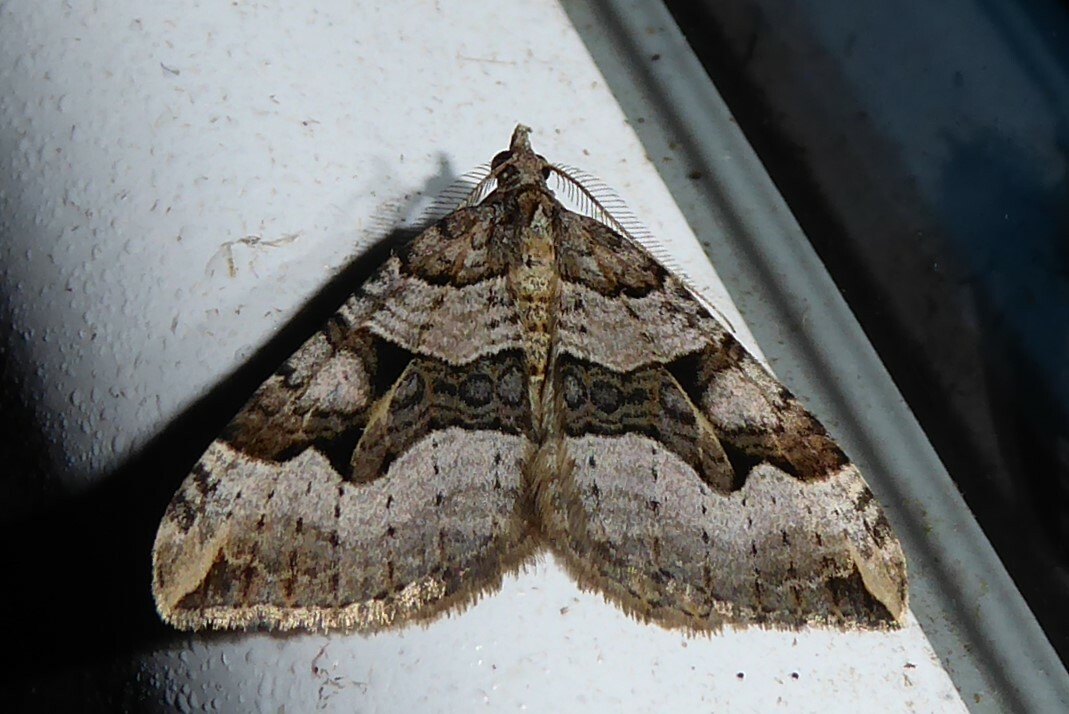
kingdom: Animalia
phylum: Arthropoda
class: Insecta
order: Lepidoptera
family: Geometridae
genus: Xanthorhoe
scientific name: Xanthorhoe semifissata
